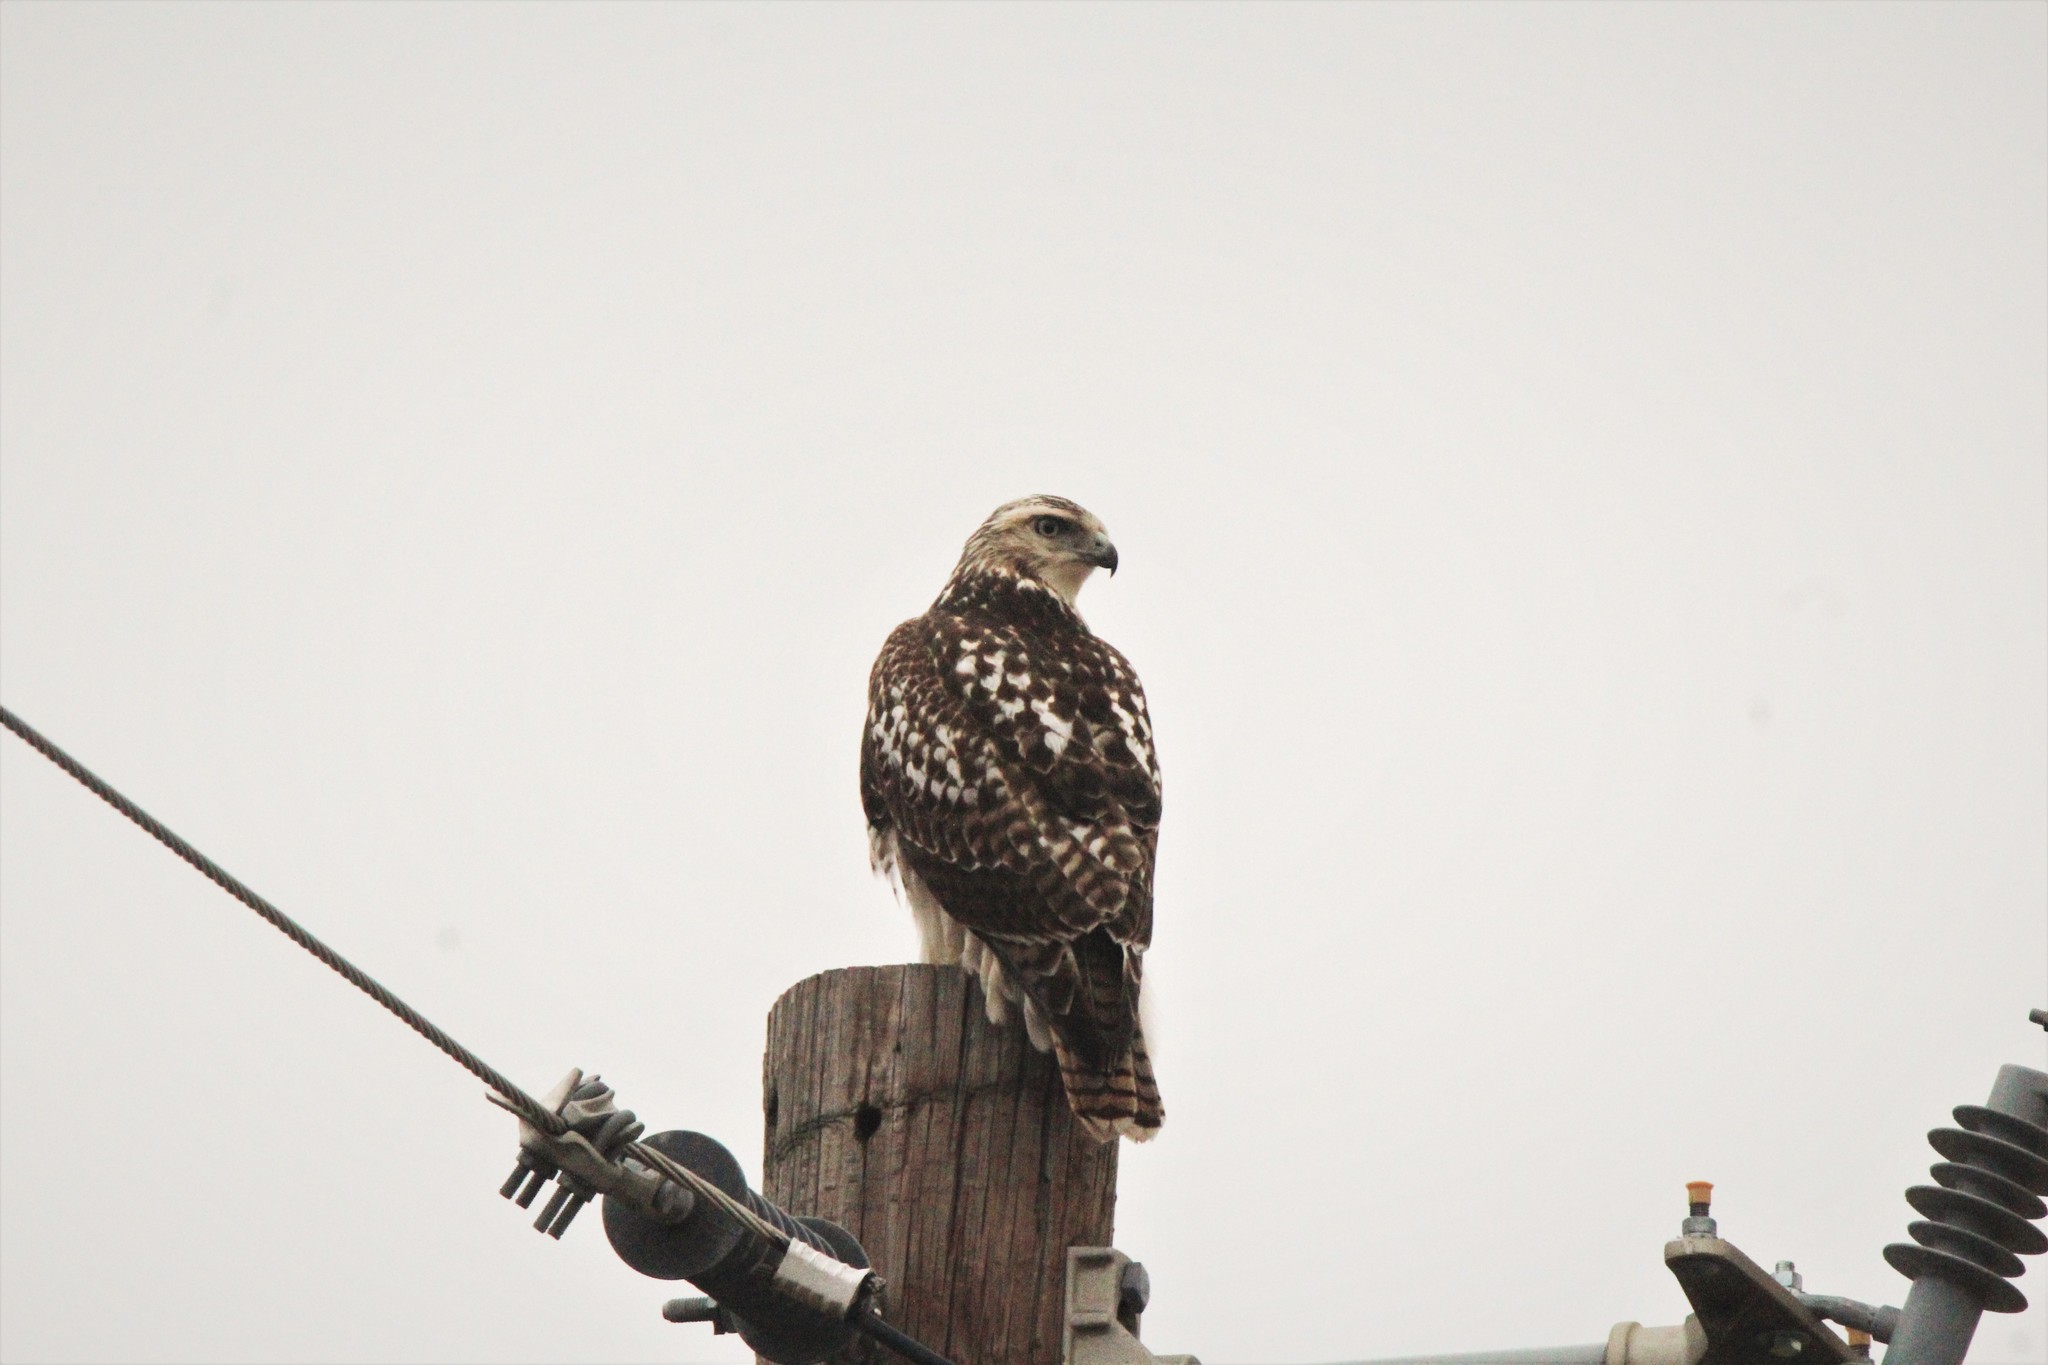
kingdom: Animalia
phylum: Chordata
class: Aves
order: Accipitriformes
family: Accipitridae
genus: Buteo
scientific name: Buteo jamaicensis
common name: Red-tailed hawk
